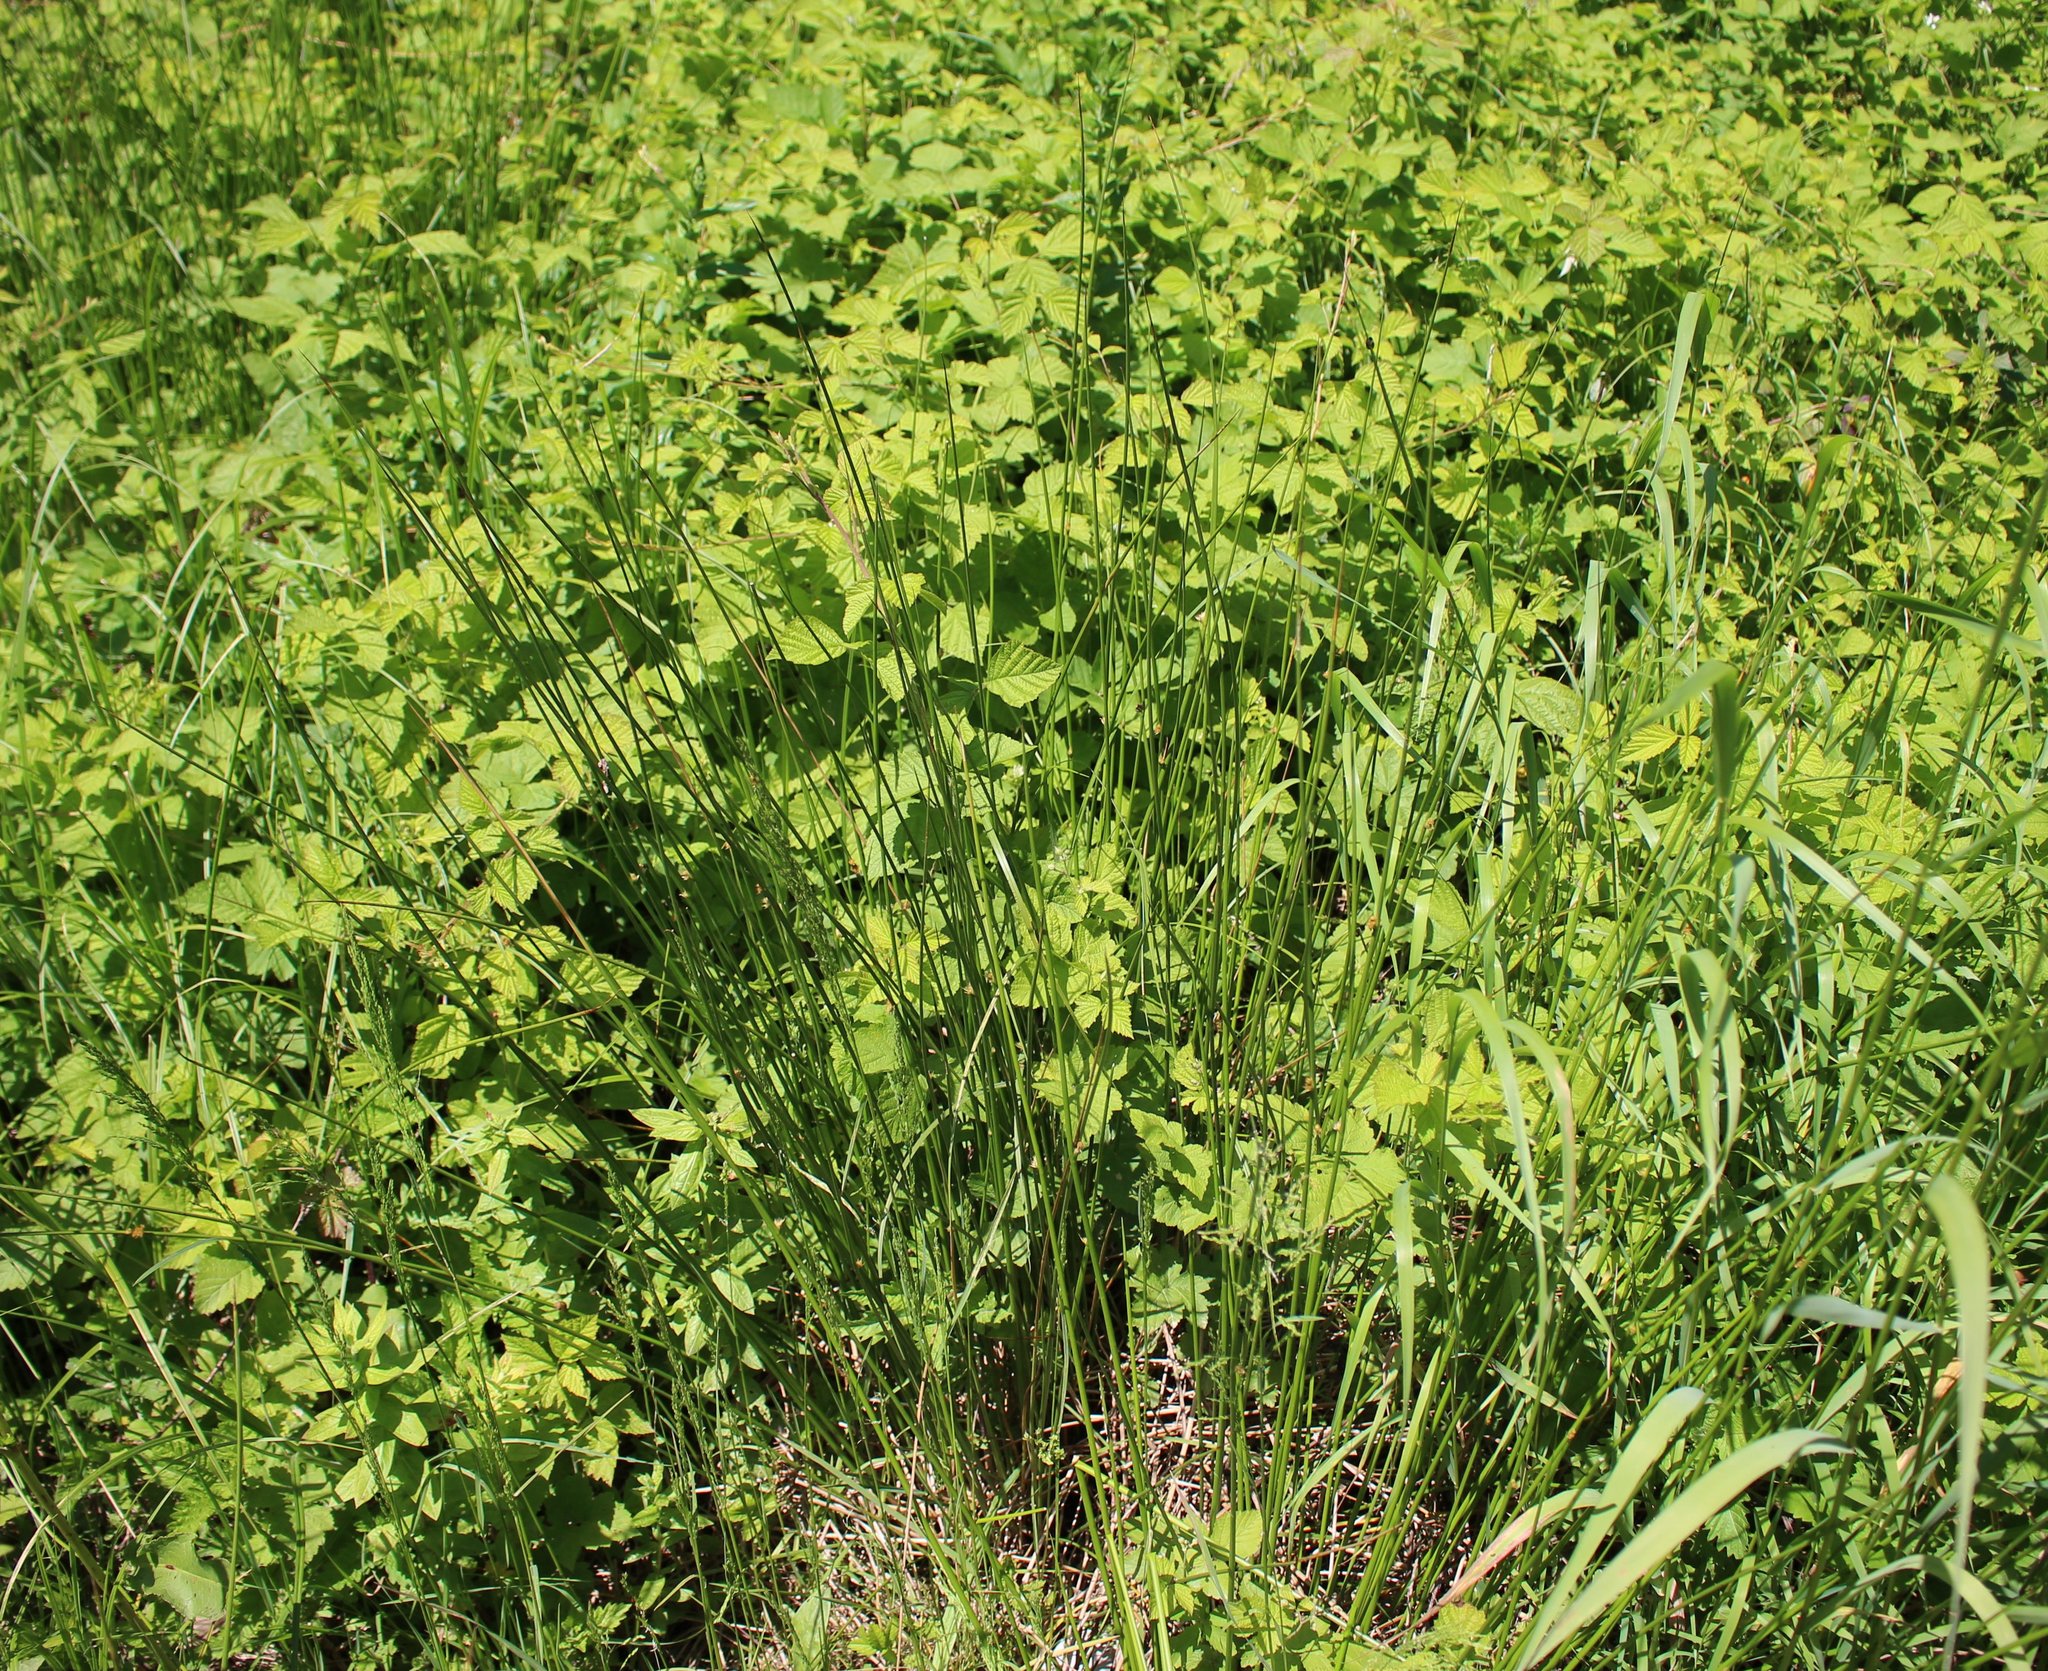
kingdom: Plantae
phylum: Tracheophyta
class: Liliopsida
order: Poales
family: Juncaceae
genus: Juncus
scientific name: Juncus effusus
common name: Soft rush
